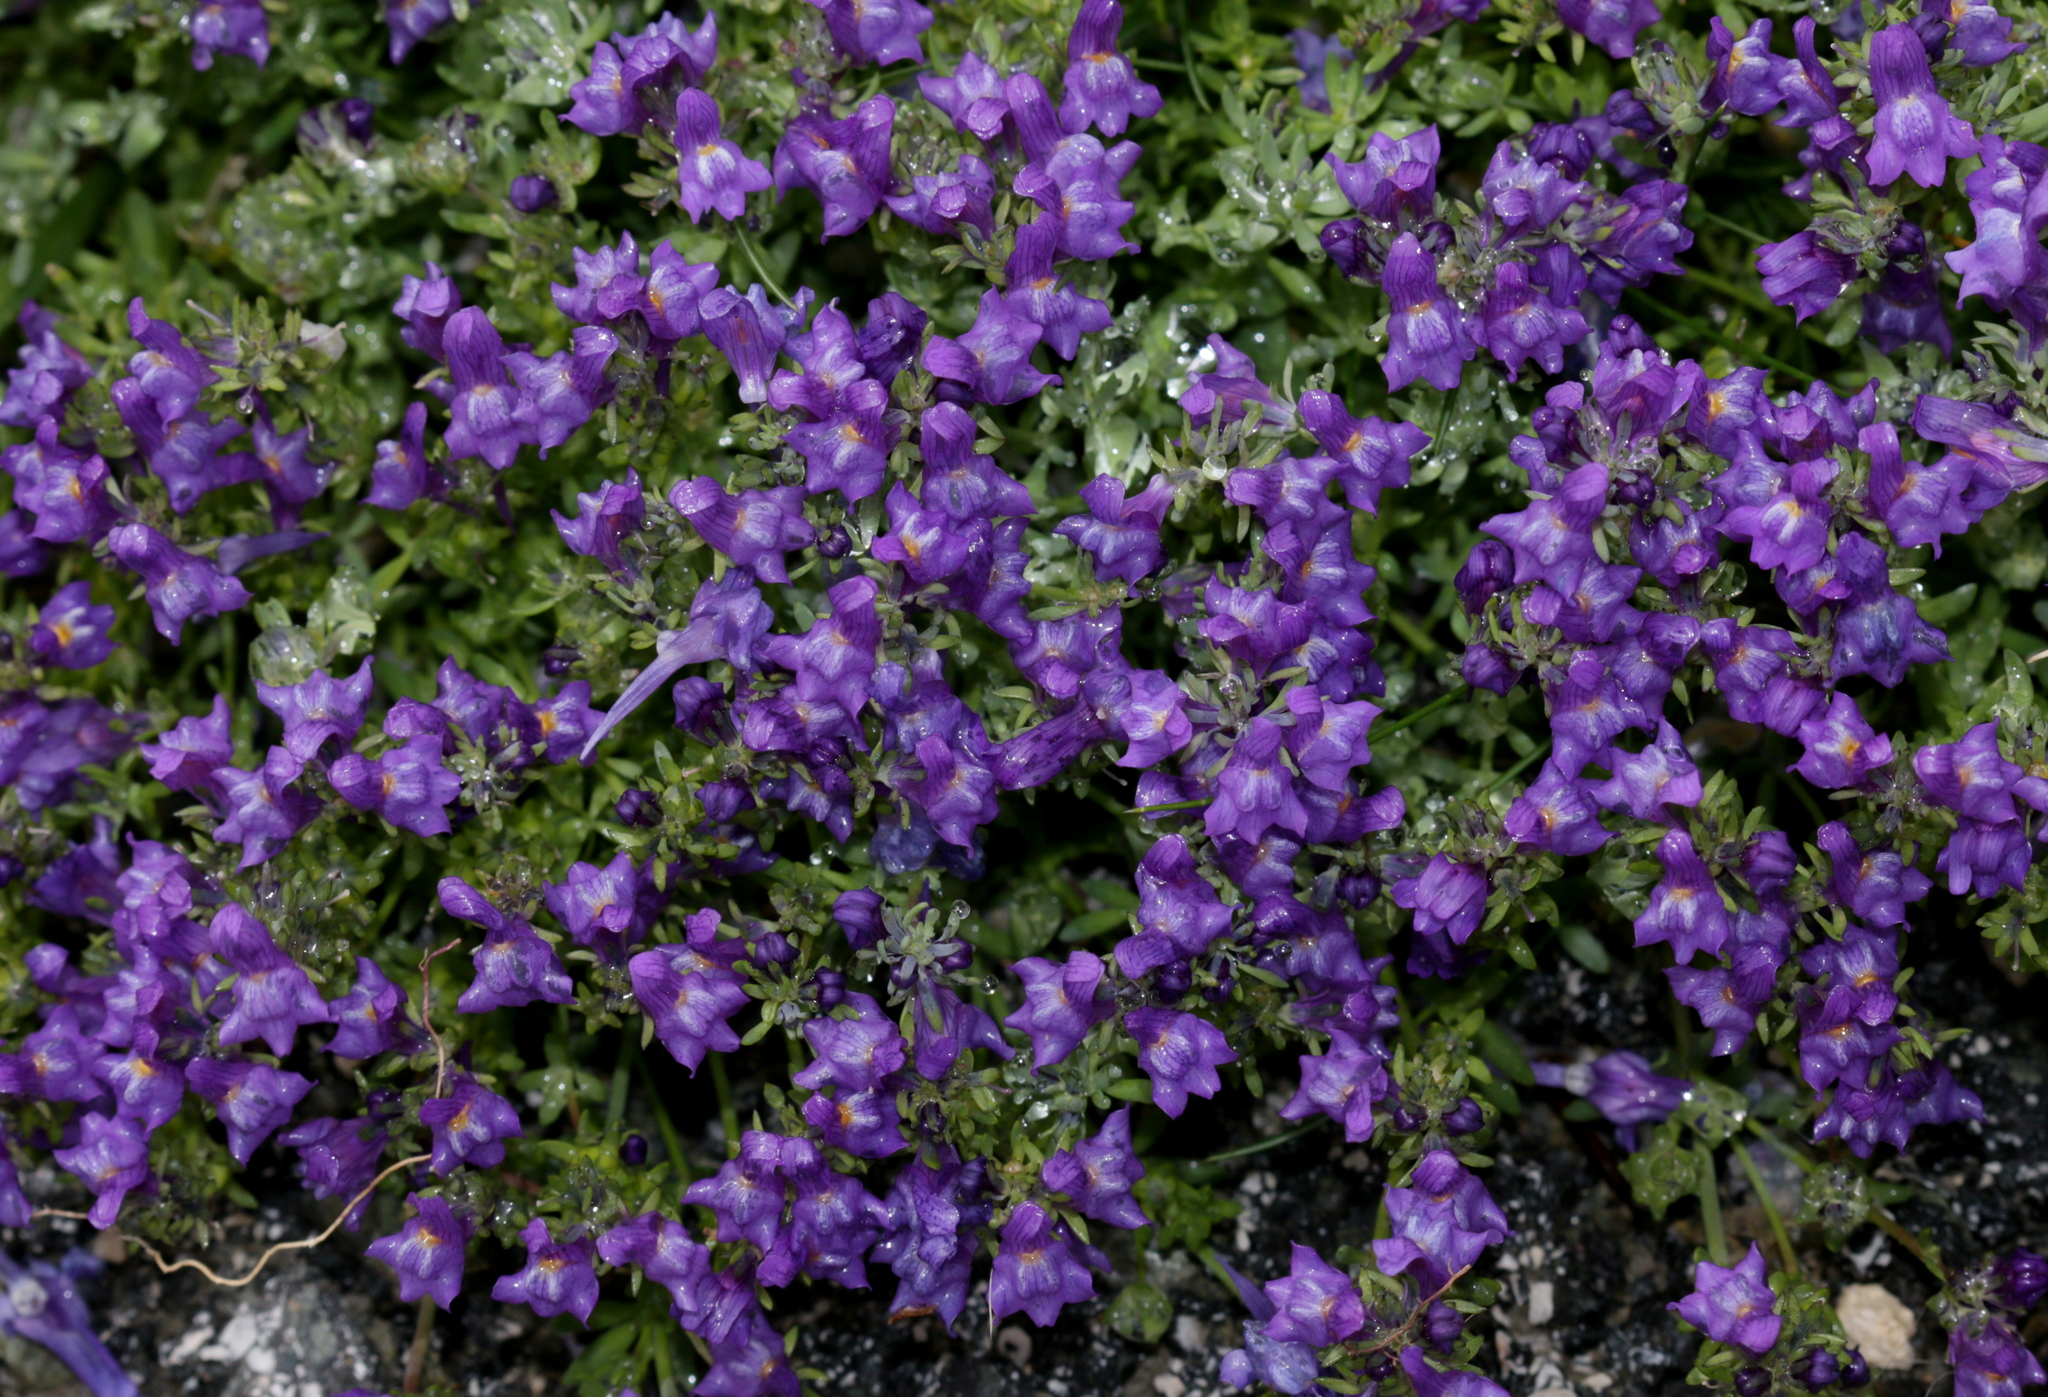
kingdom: Plantae
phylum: Tracheophyta
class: Magnoliopsida
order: Lamiales
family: Plantaginaceae
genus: Linaria
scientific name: Linaria alpina
